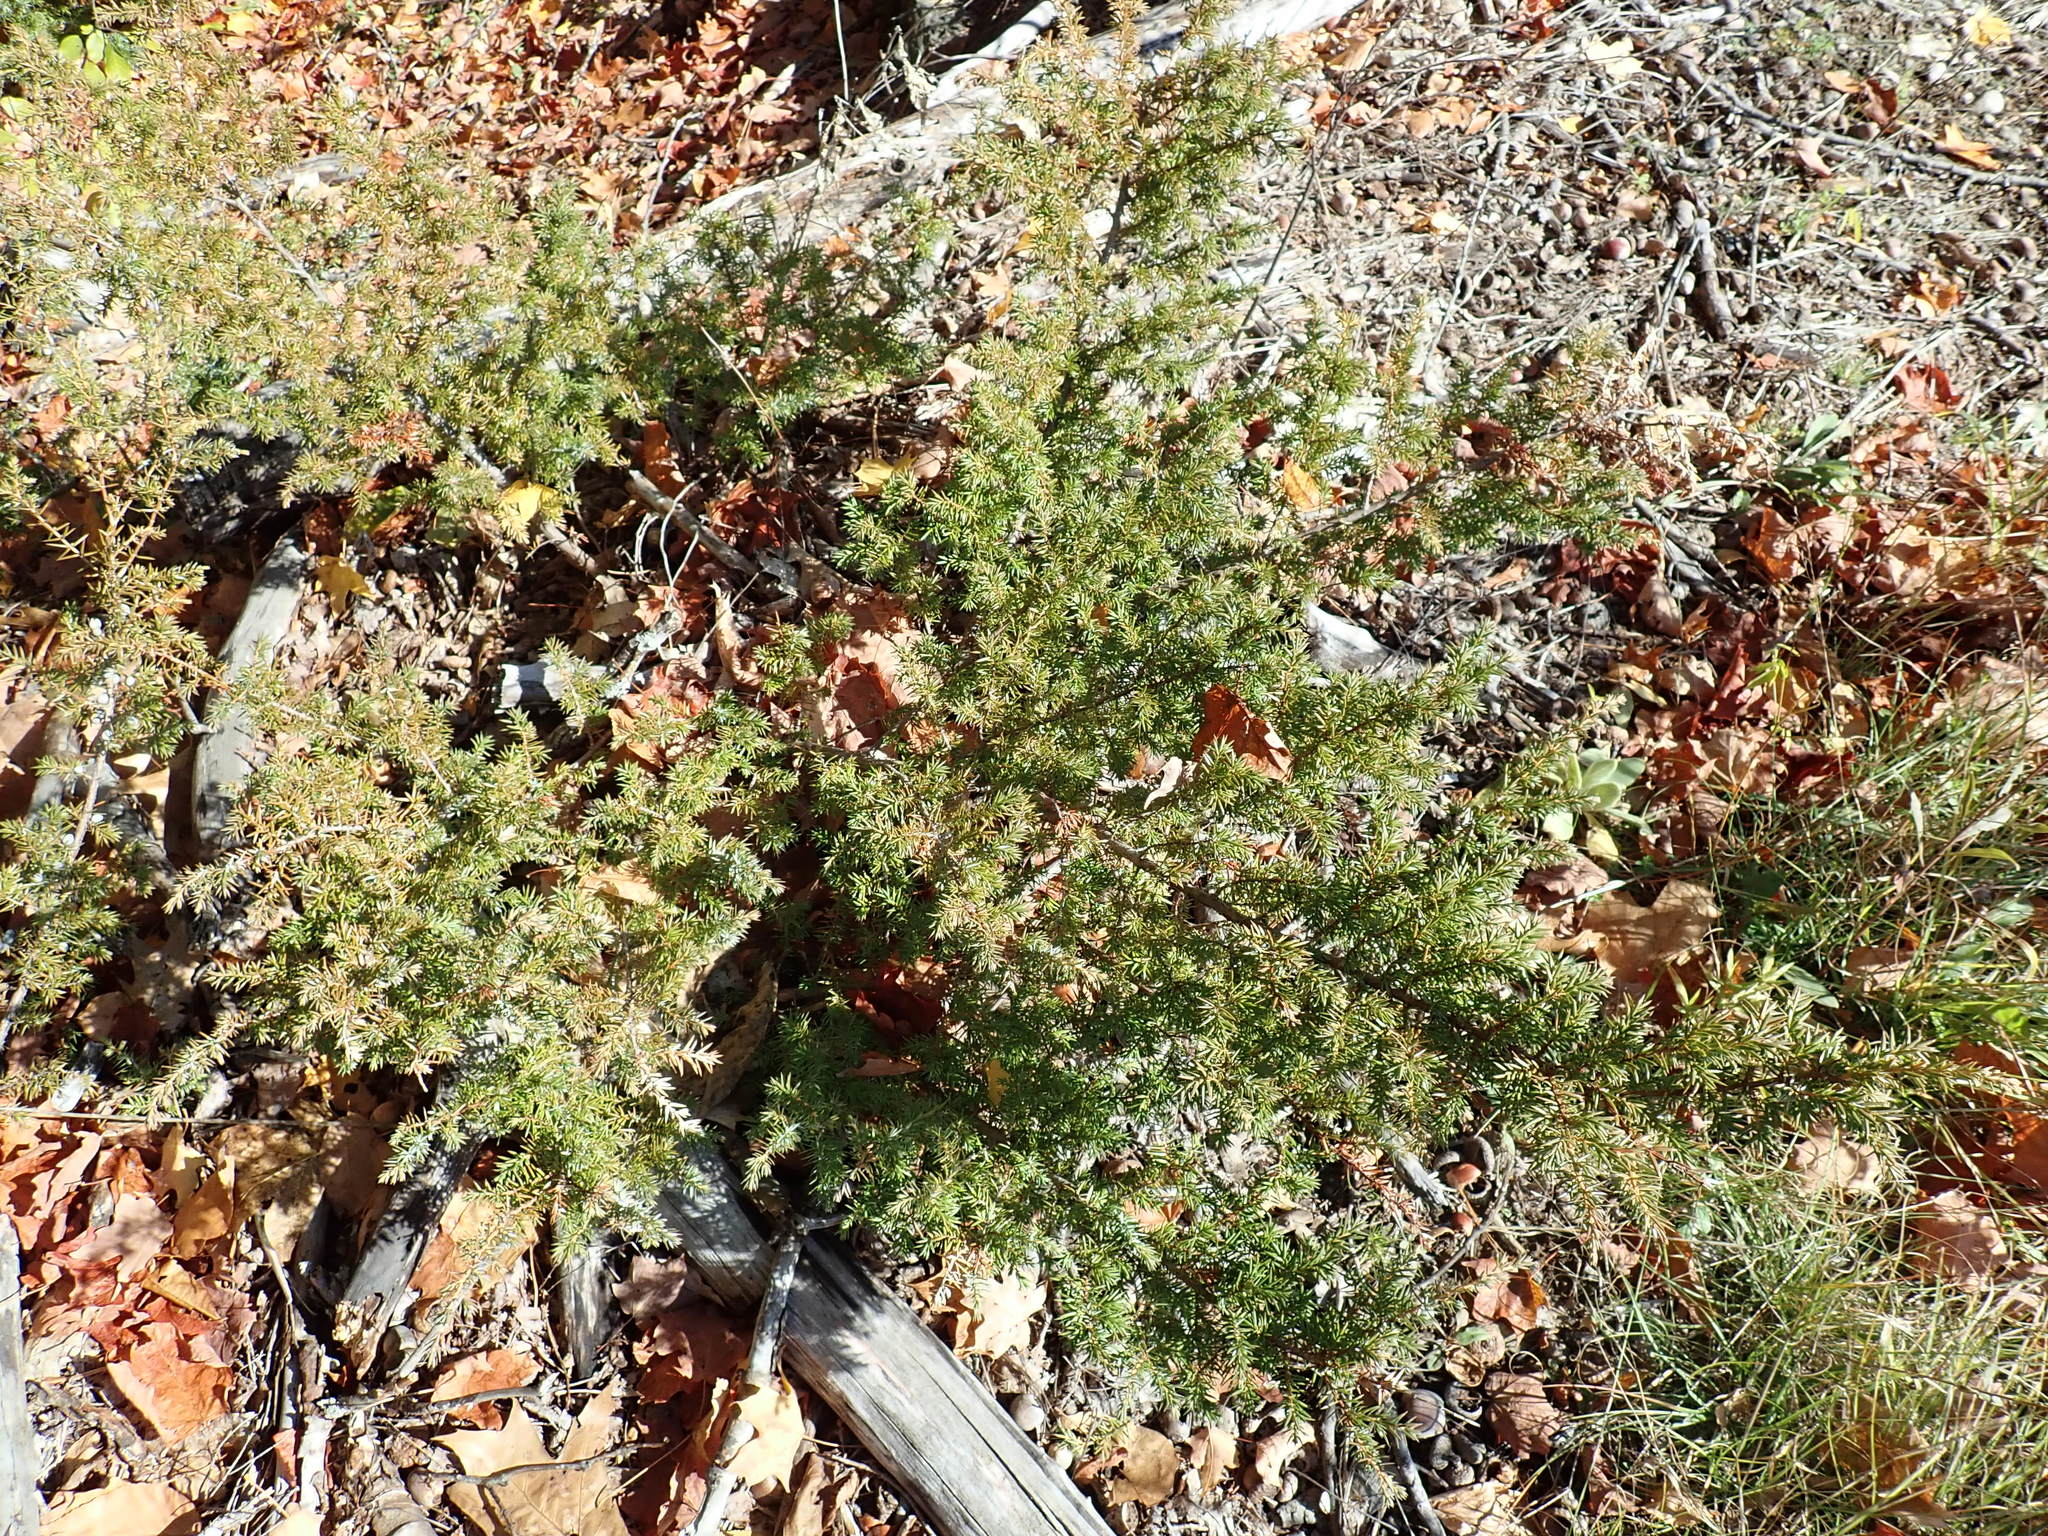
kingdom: Plantae
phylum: Tracheophyta
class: Pinopsida
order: Pinales
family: Cupressaceae
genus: Juniperus
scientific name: Juniperus communis
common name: Common juniper
